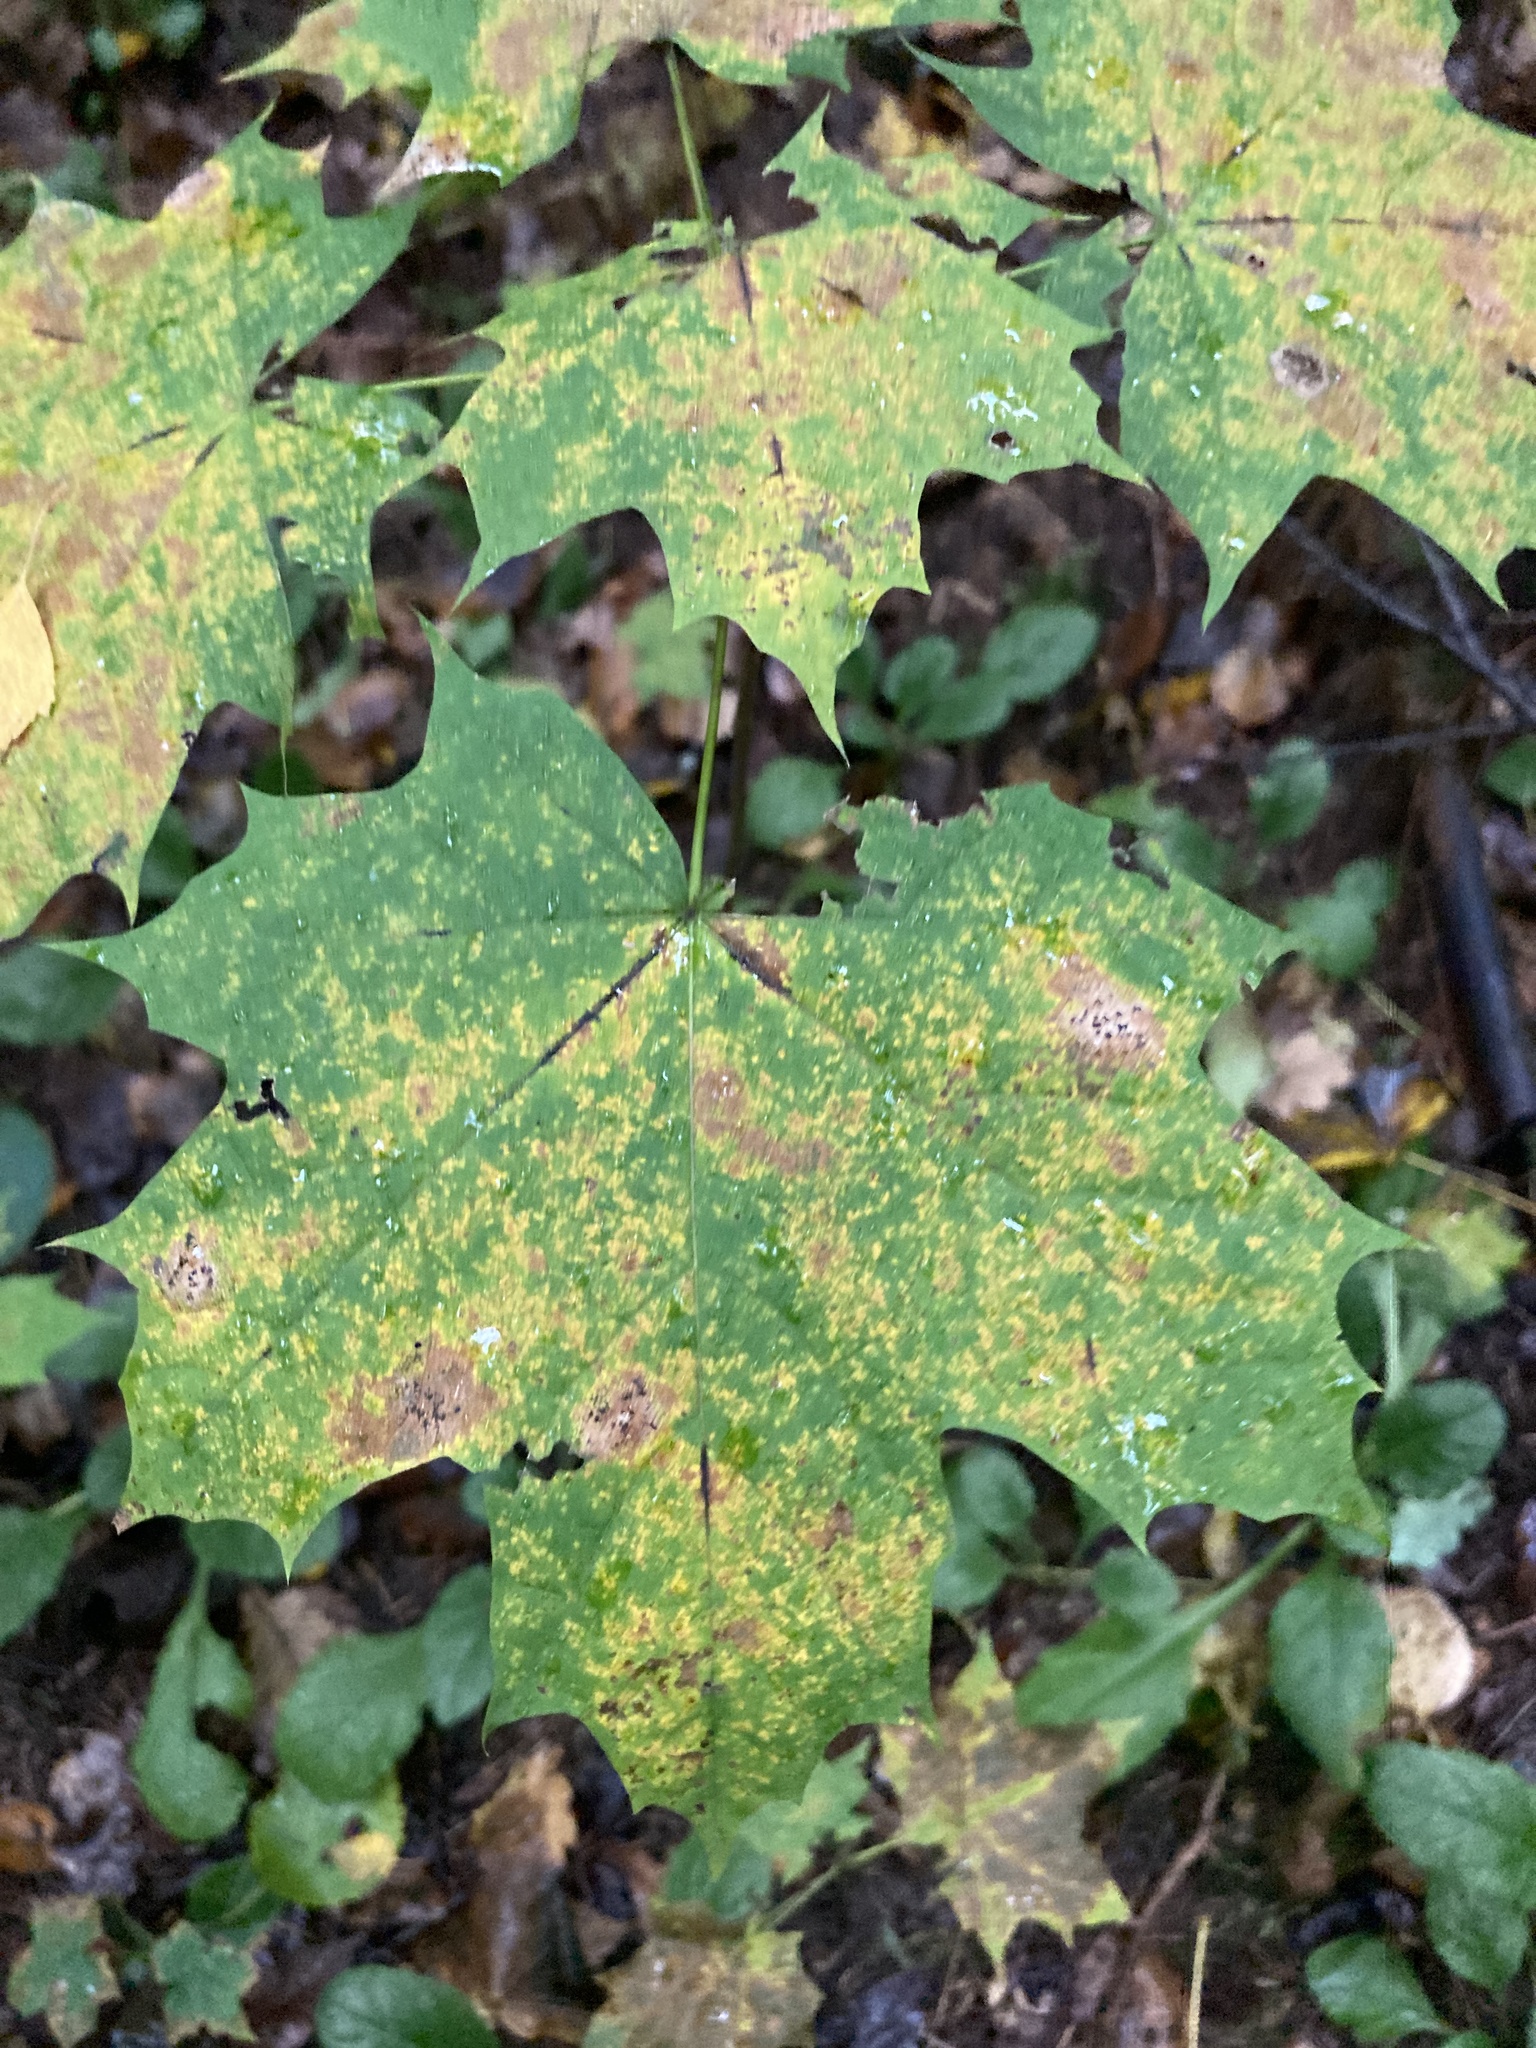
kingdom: Plantae
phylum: Tracheophyta
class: Magnoliopsida
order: Sapindales
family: Sapindaceae
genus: Acer
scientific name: Acer platanoides
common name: Norway maple
